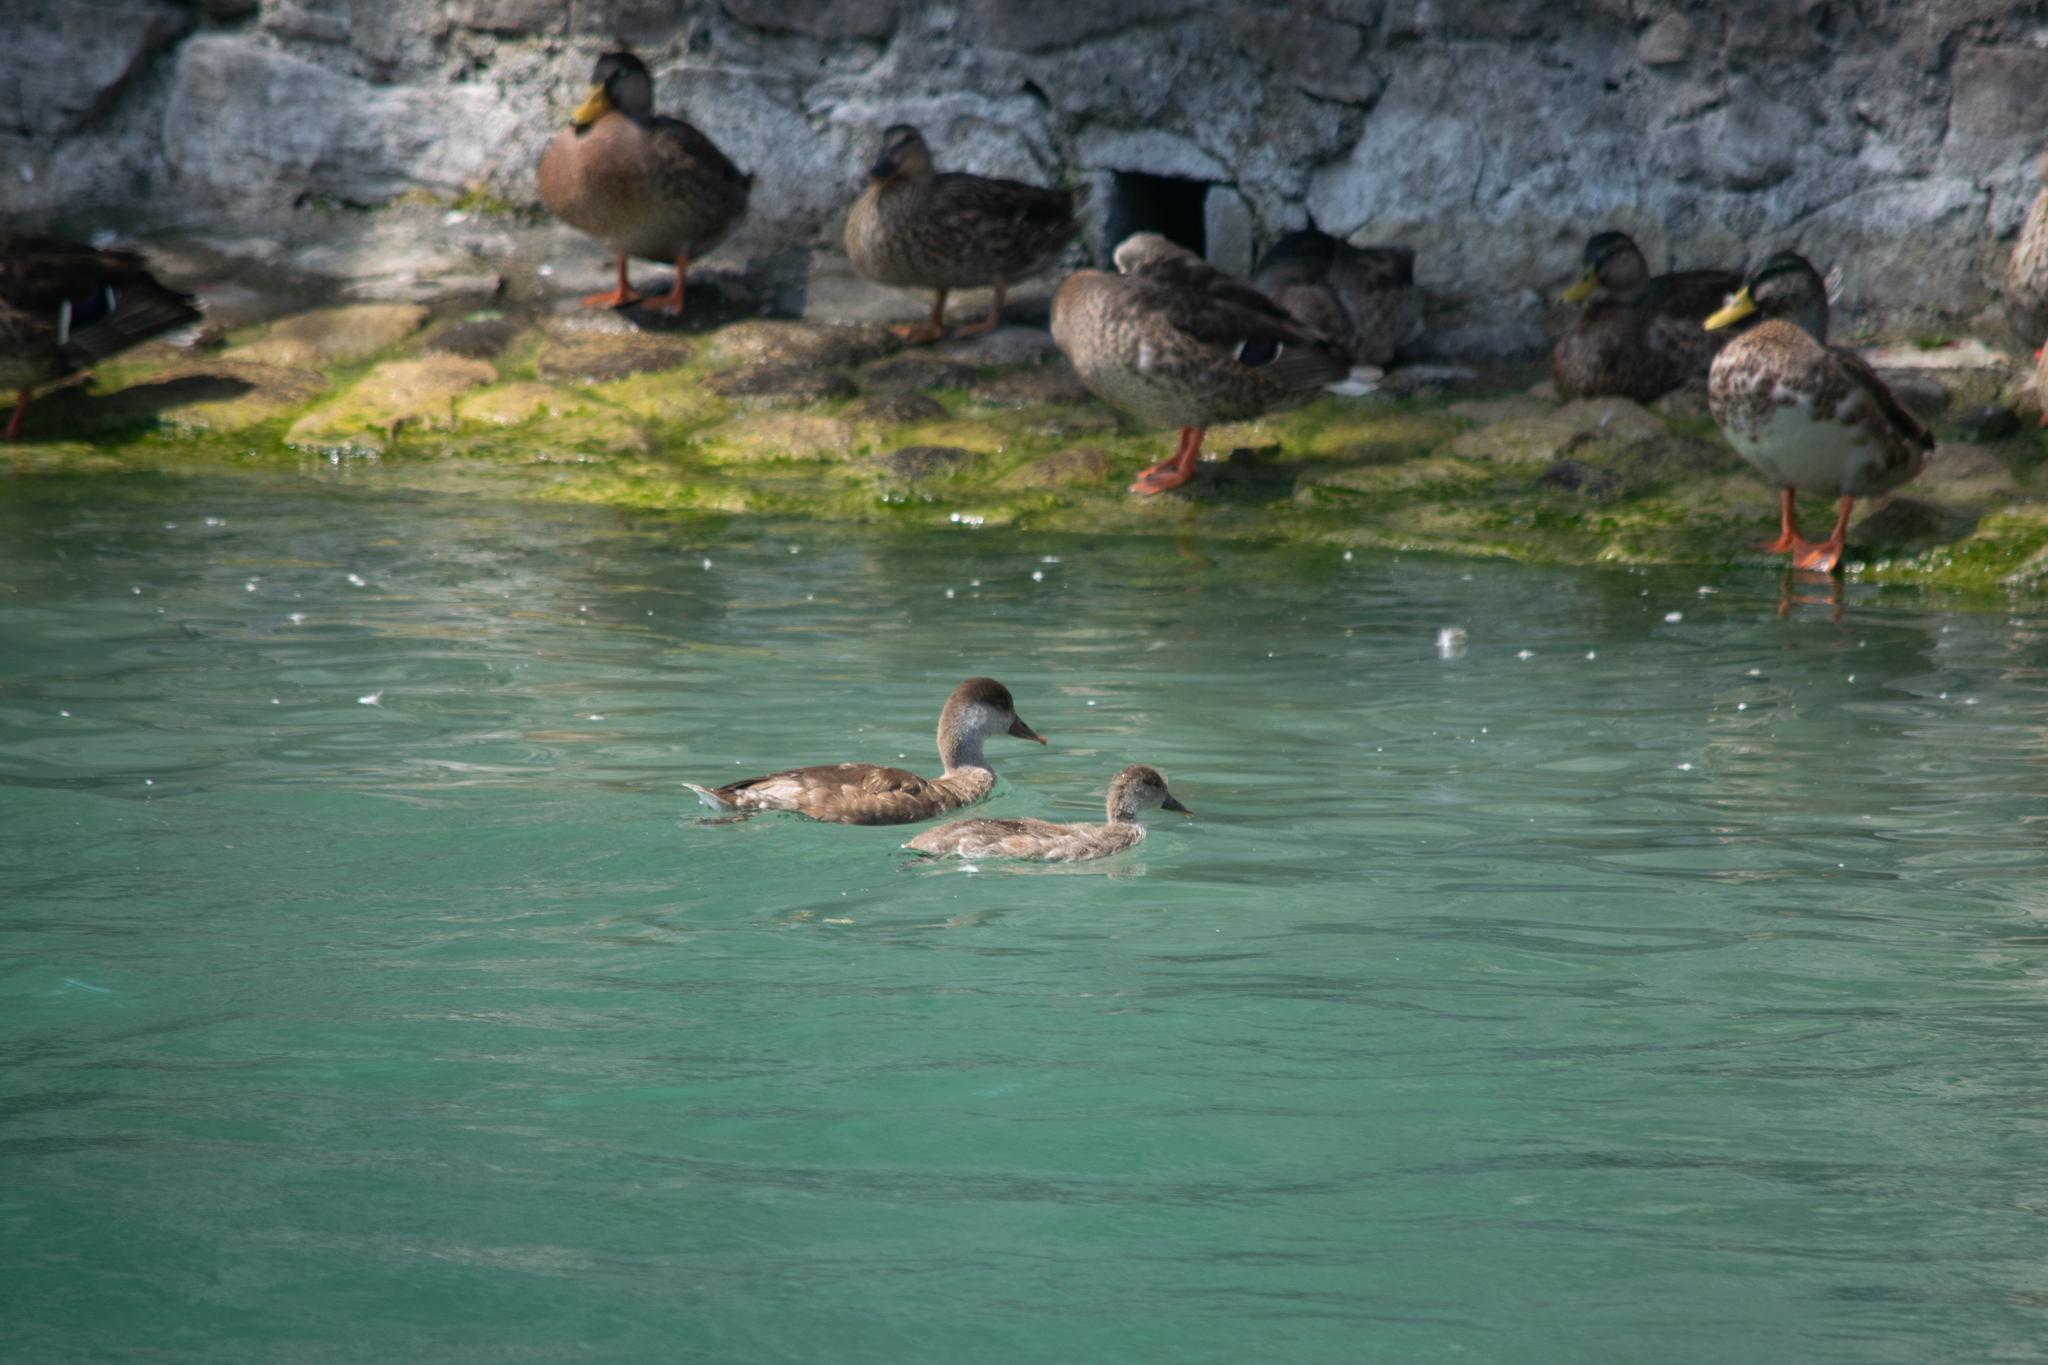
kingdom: Animalia
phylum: Chordata
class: Aves
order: Anseriformes
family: Anatidae
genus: Netta
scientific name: Netta rufina
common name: Red-crested pochard
